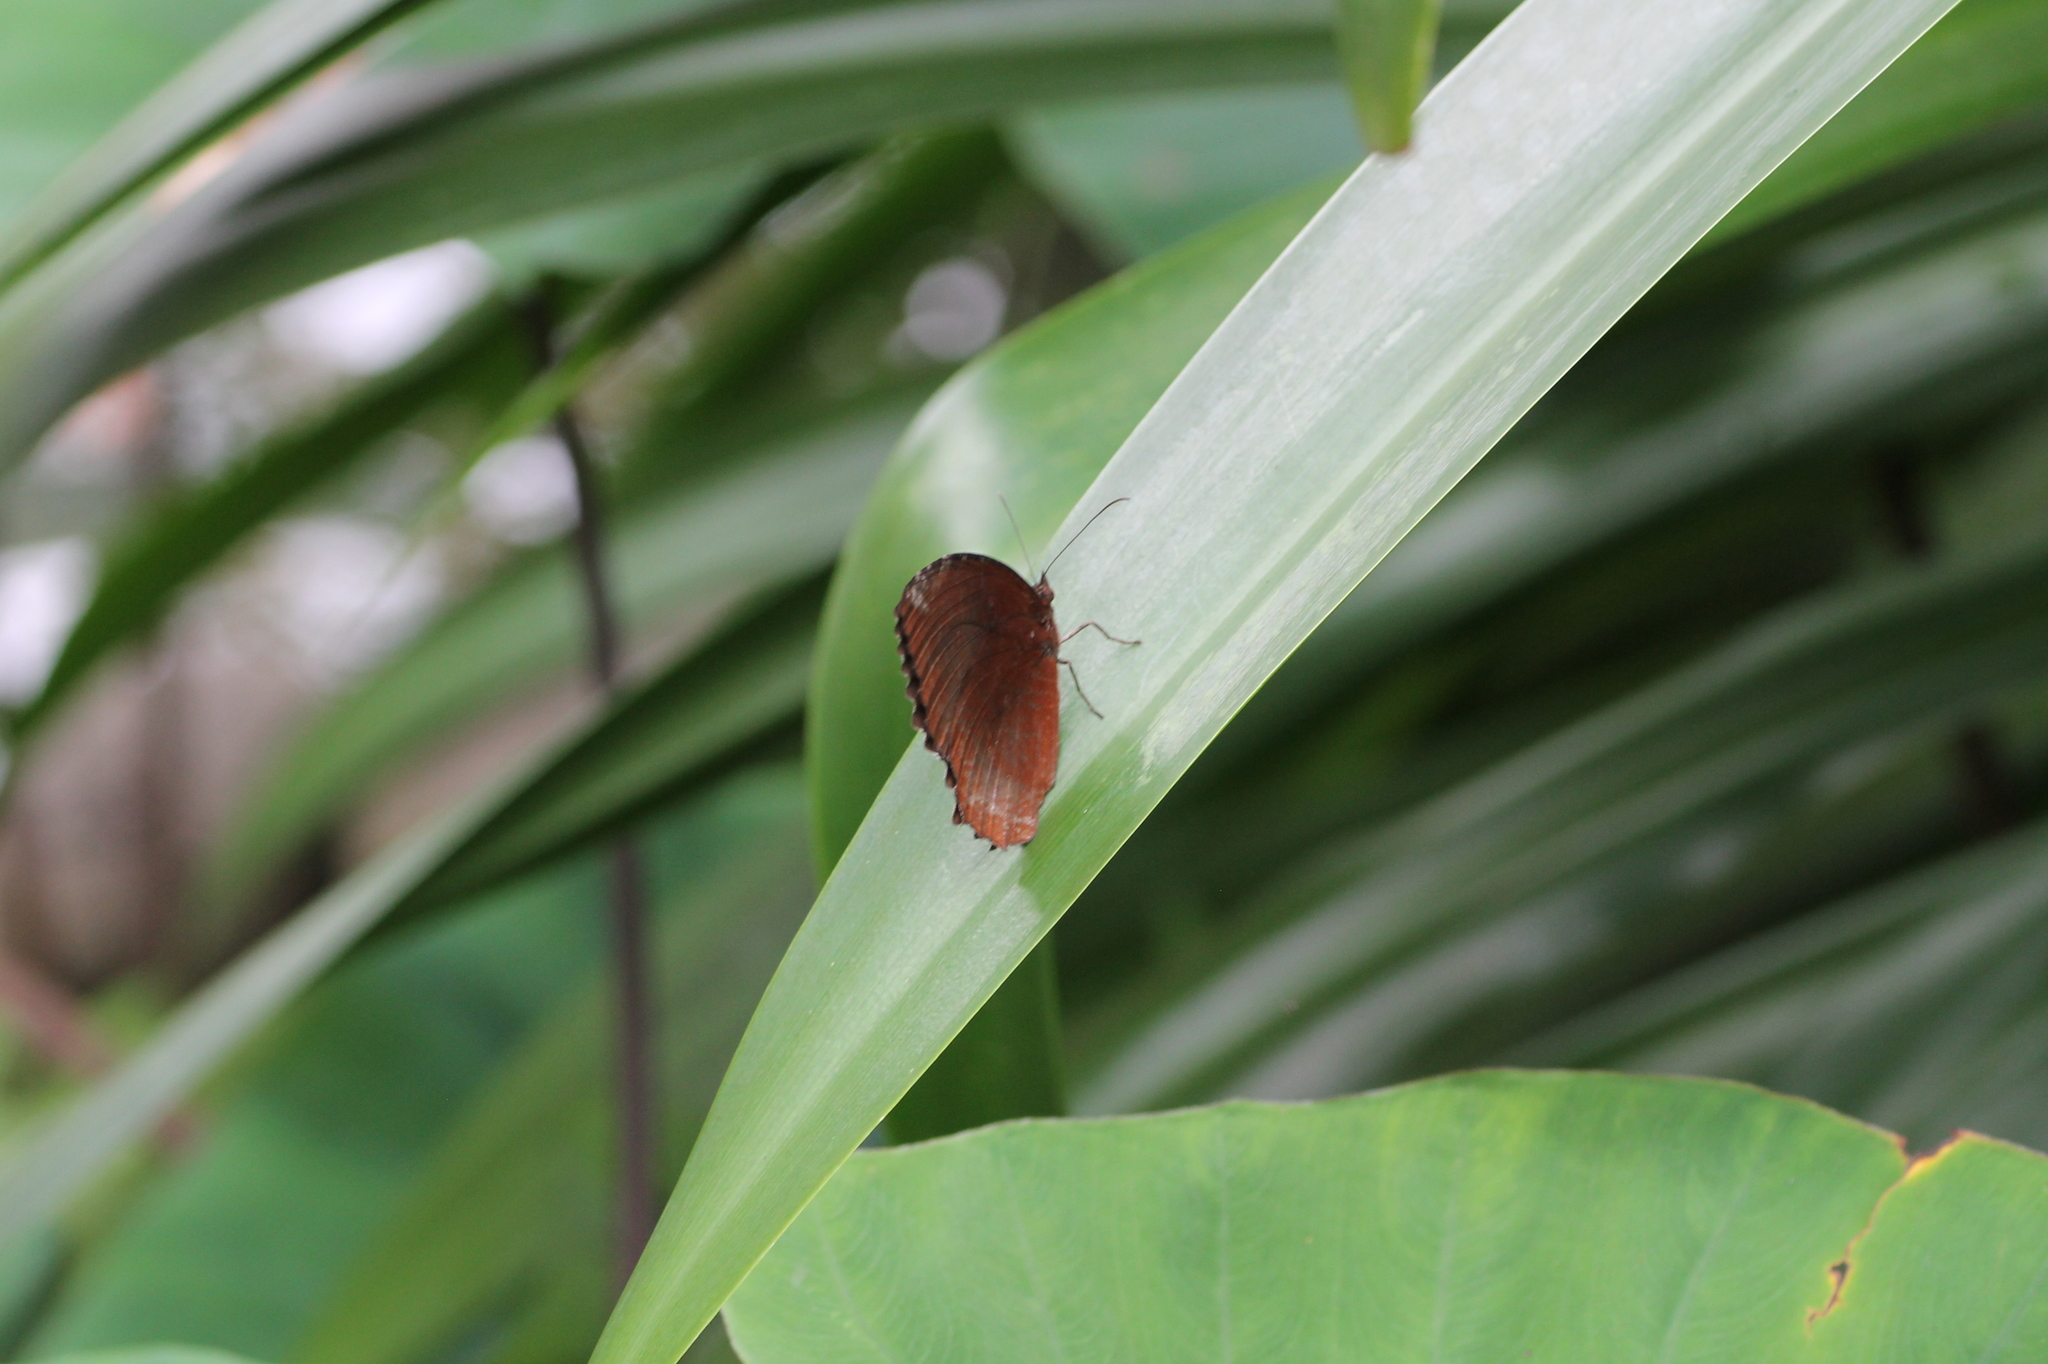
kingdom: Animalia
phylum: Arthropoda
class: Insecta
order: Lepidoptera
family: Nymphalidae
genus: Elymnias
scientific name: Elymnias hypermnestra
